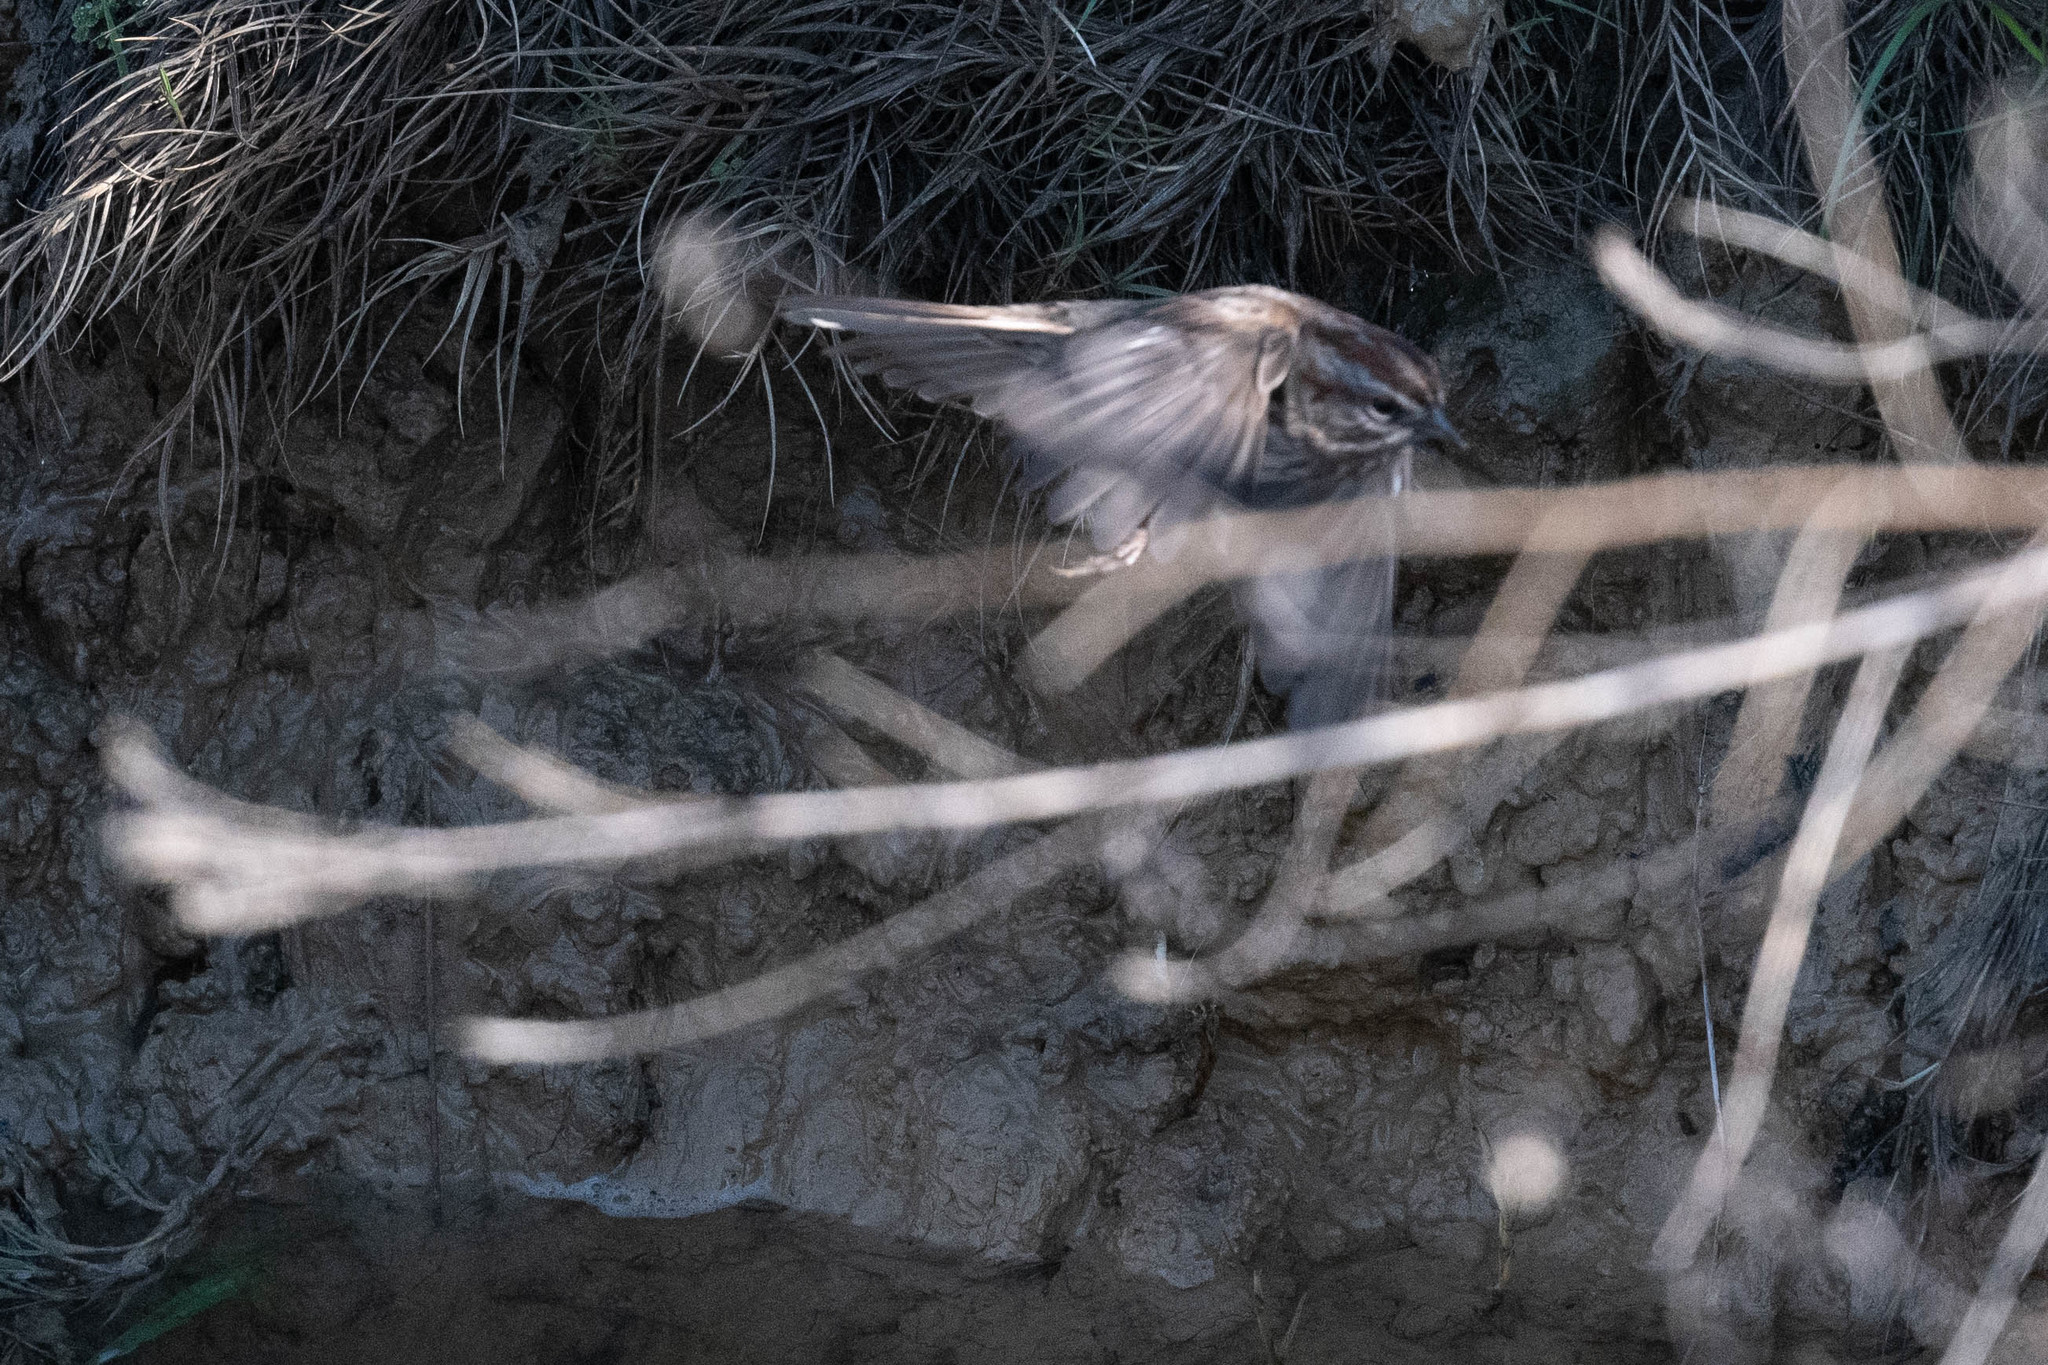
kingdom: Animalia
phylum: Chordata
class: Aves
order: Passeriformes
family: Passerellidae
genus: Melospiza
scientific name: Melospiza melodia
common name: Song sparrow
